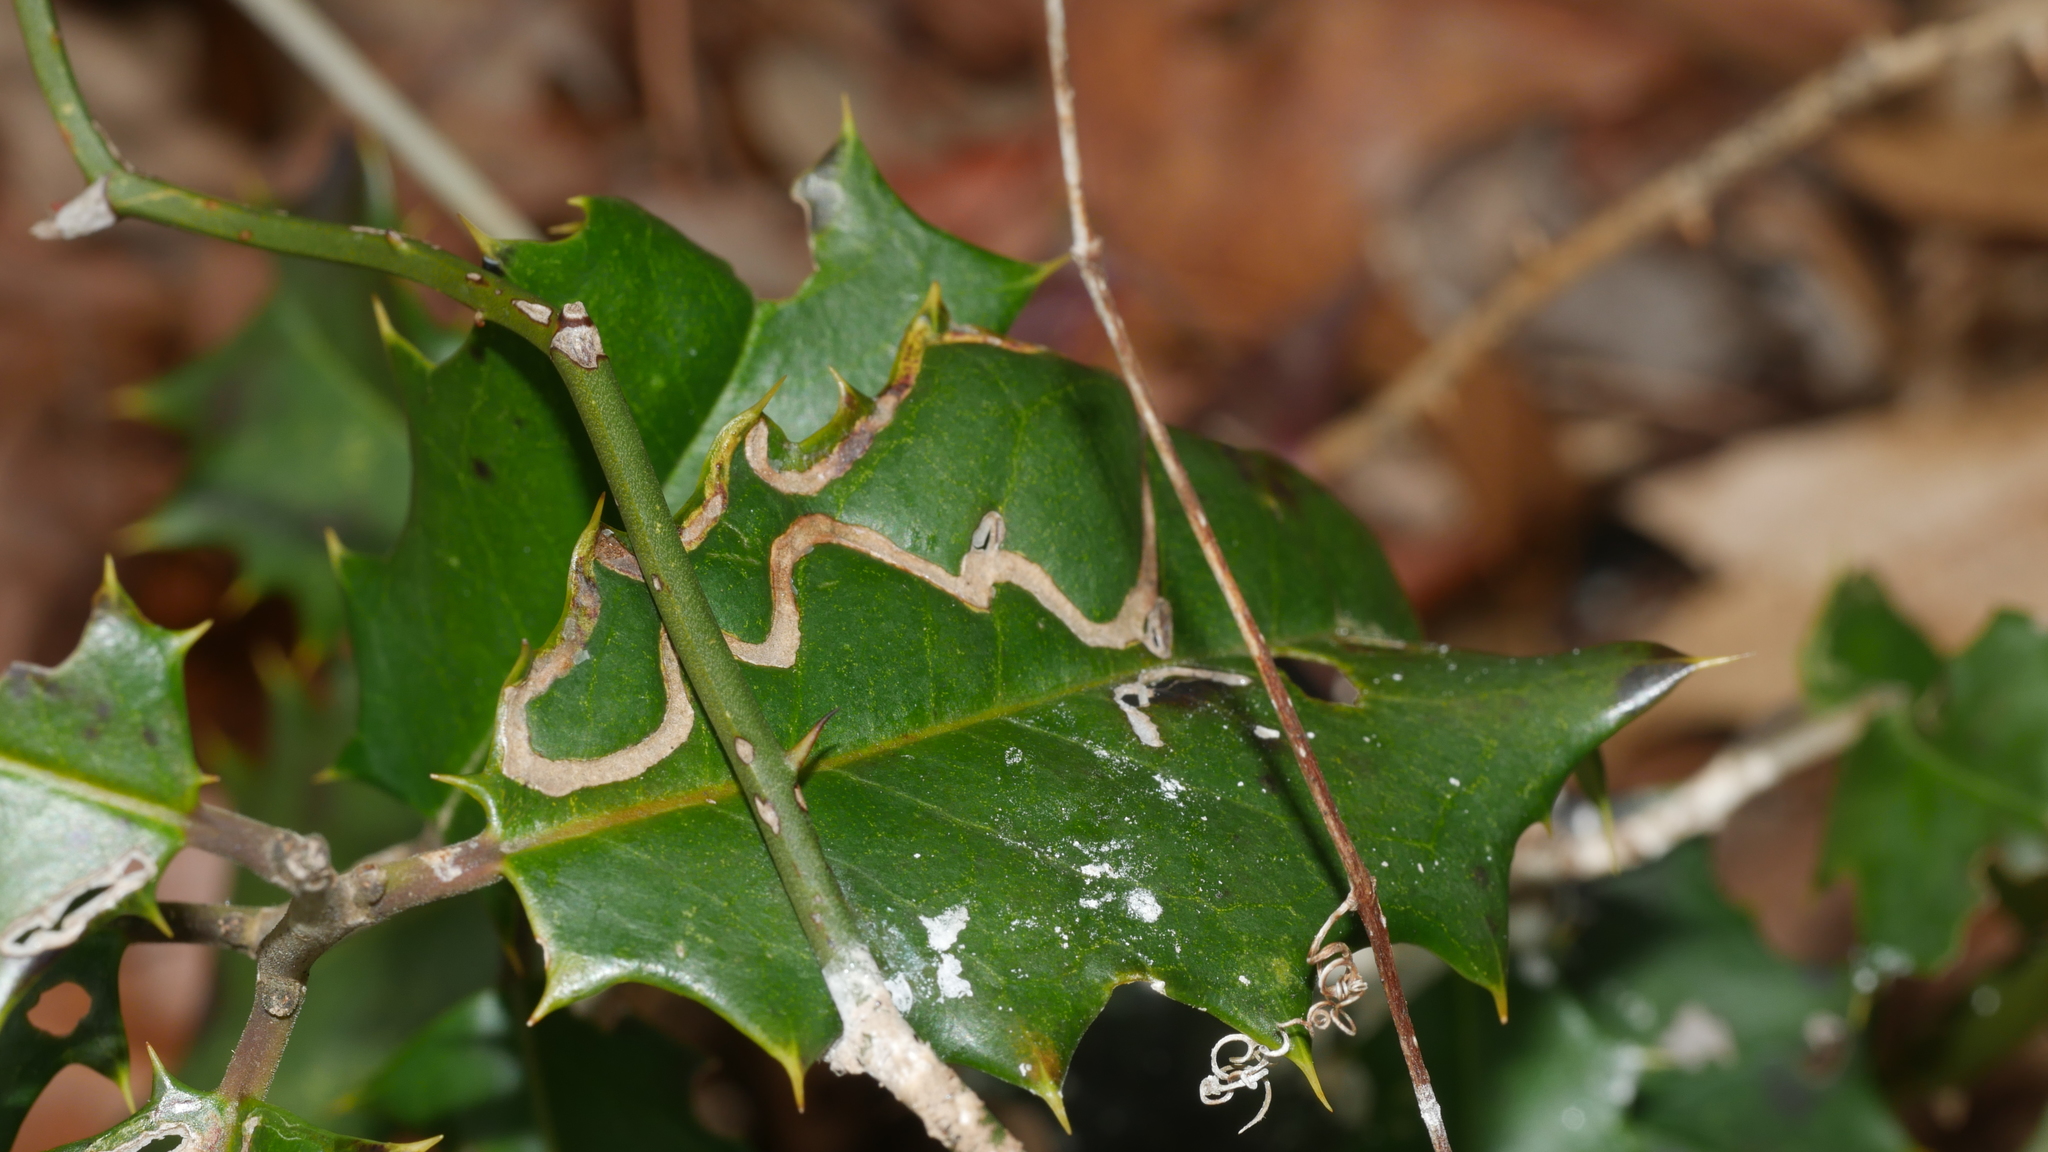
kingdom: Animalia
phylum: Arthropoda
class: Insecta
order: Diptera
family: Agromyzidae
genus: Phytomyza
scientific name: Phytomyza opacae
